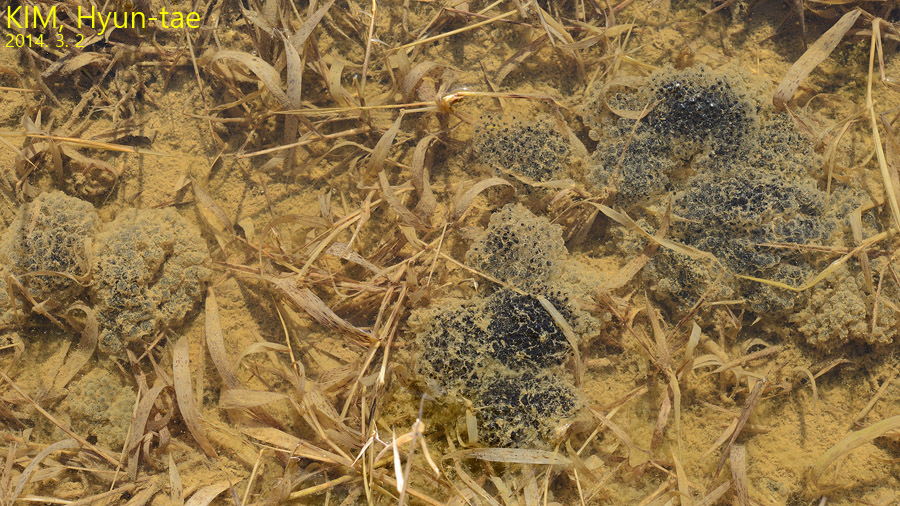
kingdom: Animalia
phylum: Chordata
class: Amphibia
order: Anura
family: Ranidae
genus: Rana
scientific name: Rana coreana
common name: Korean brown frog
